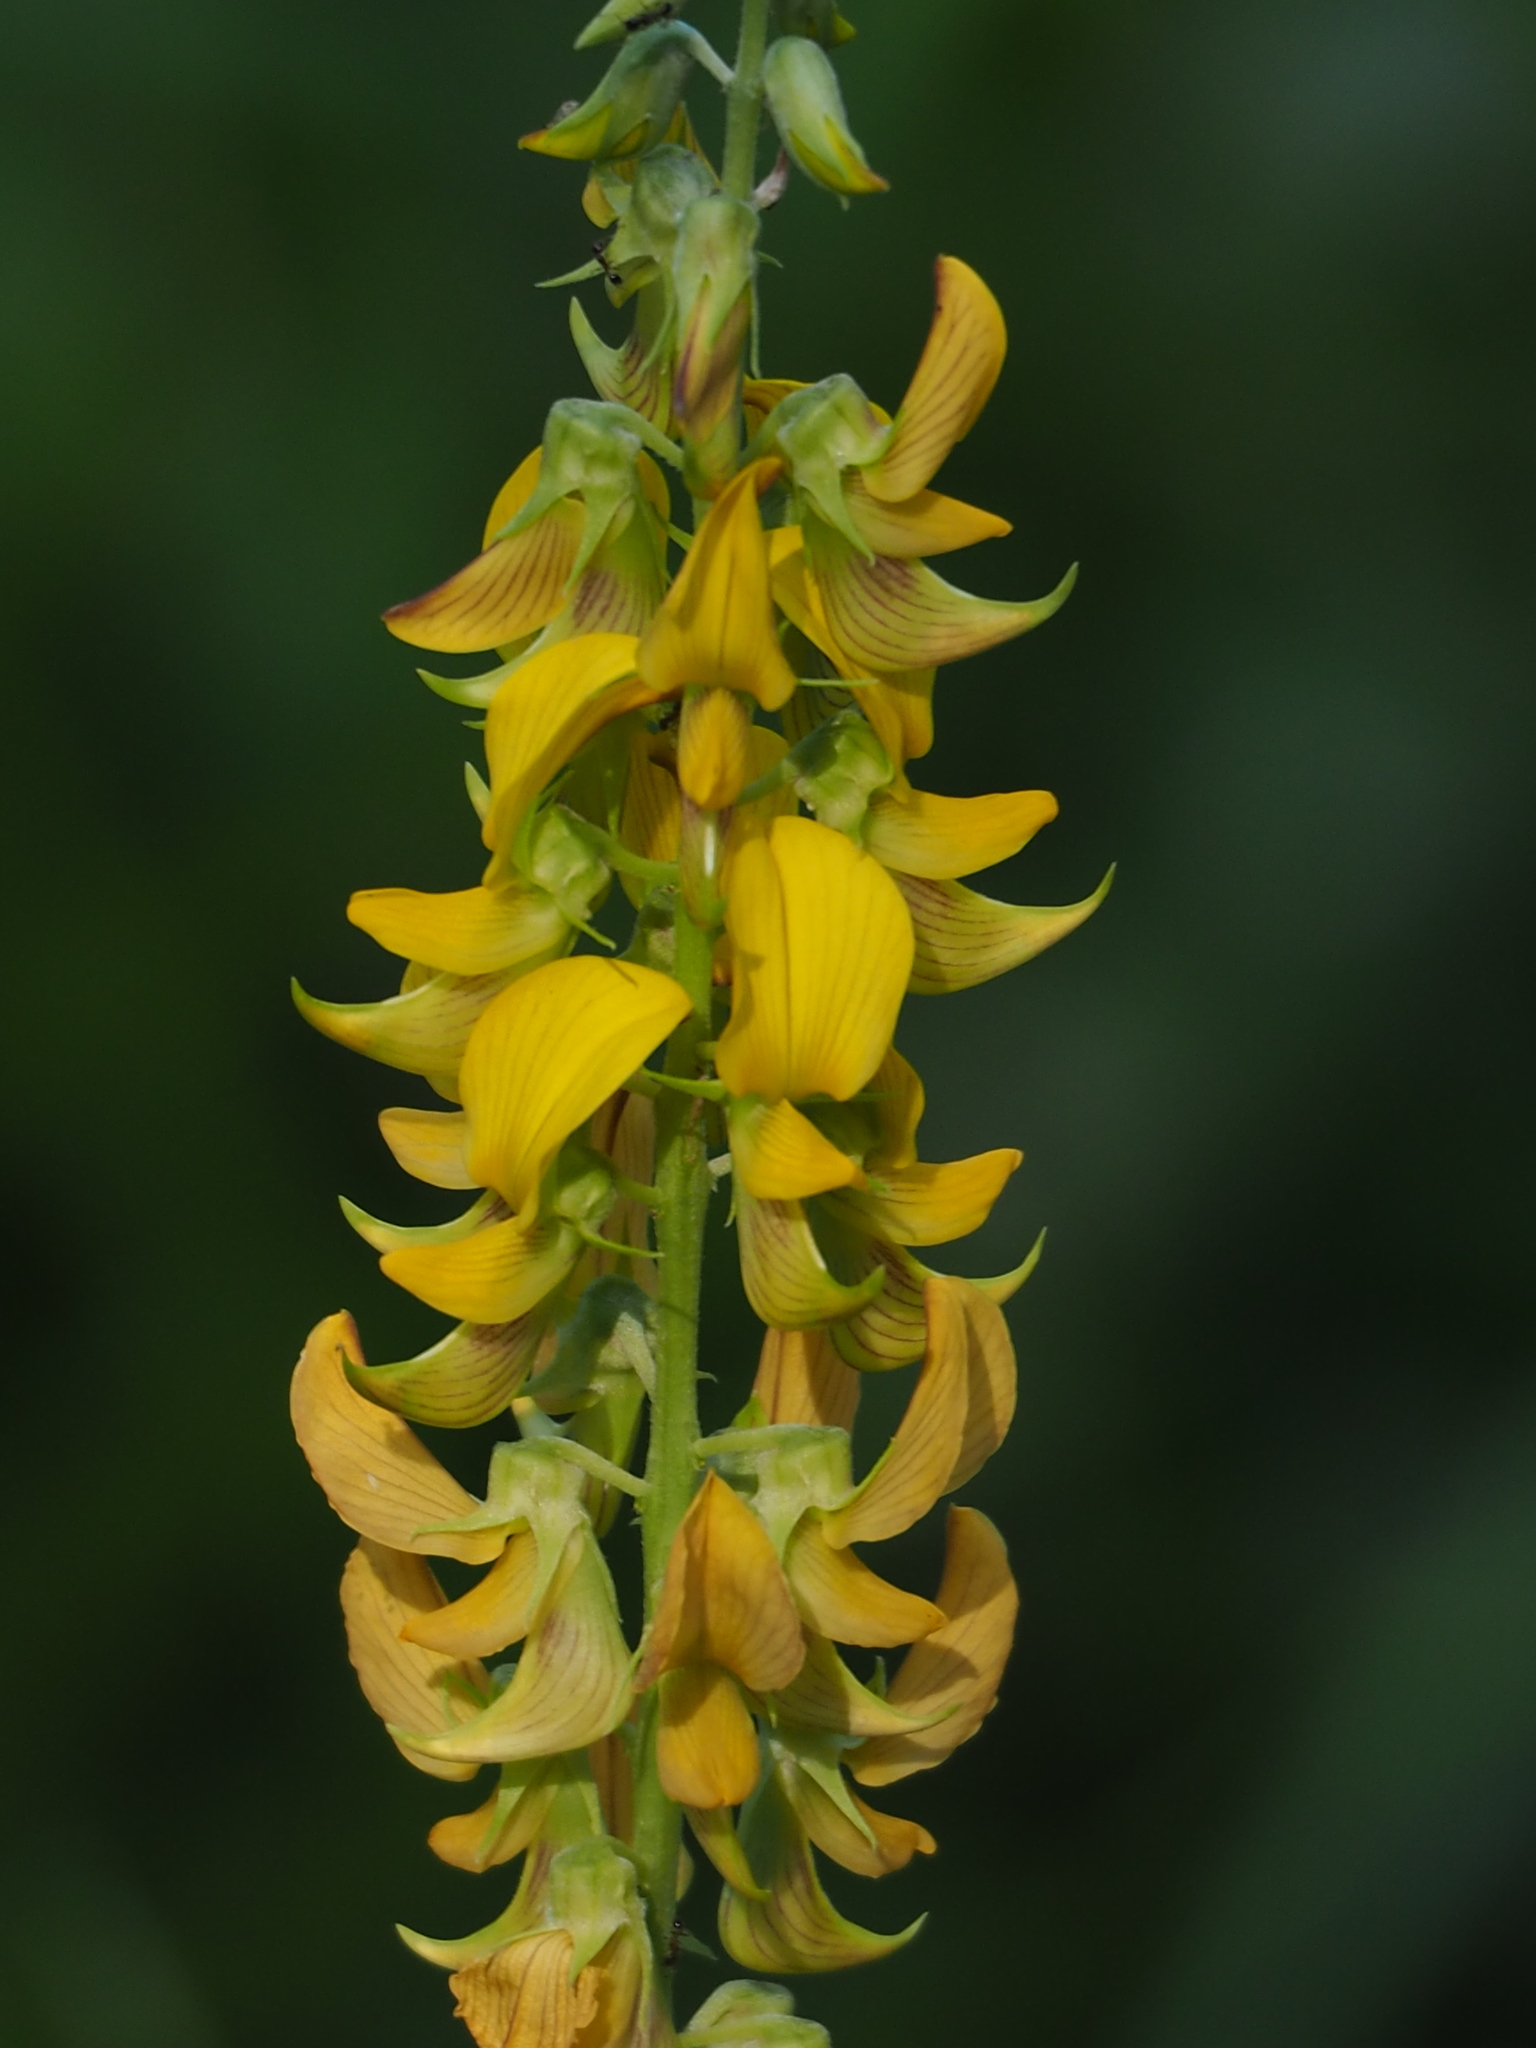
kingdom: Plantae
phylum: Tracheophyta
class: Magnoliopsida
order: Fabales
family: Fabaceae
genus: Crotalaria
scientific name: Crotalaria pallida
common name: Smooth rattlebox
